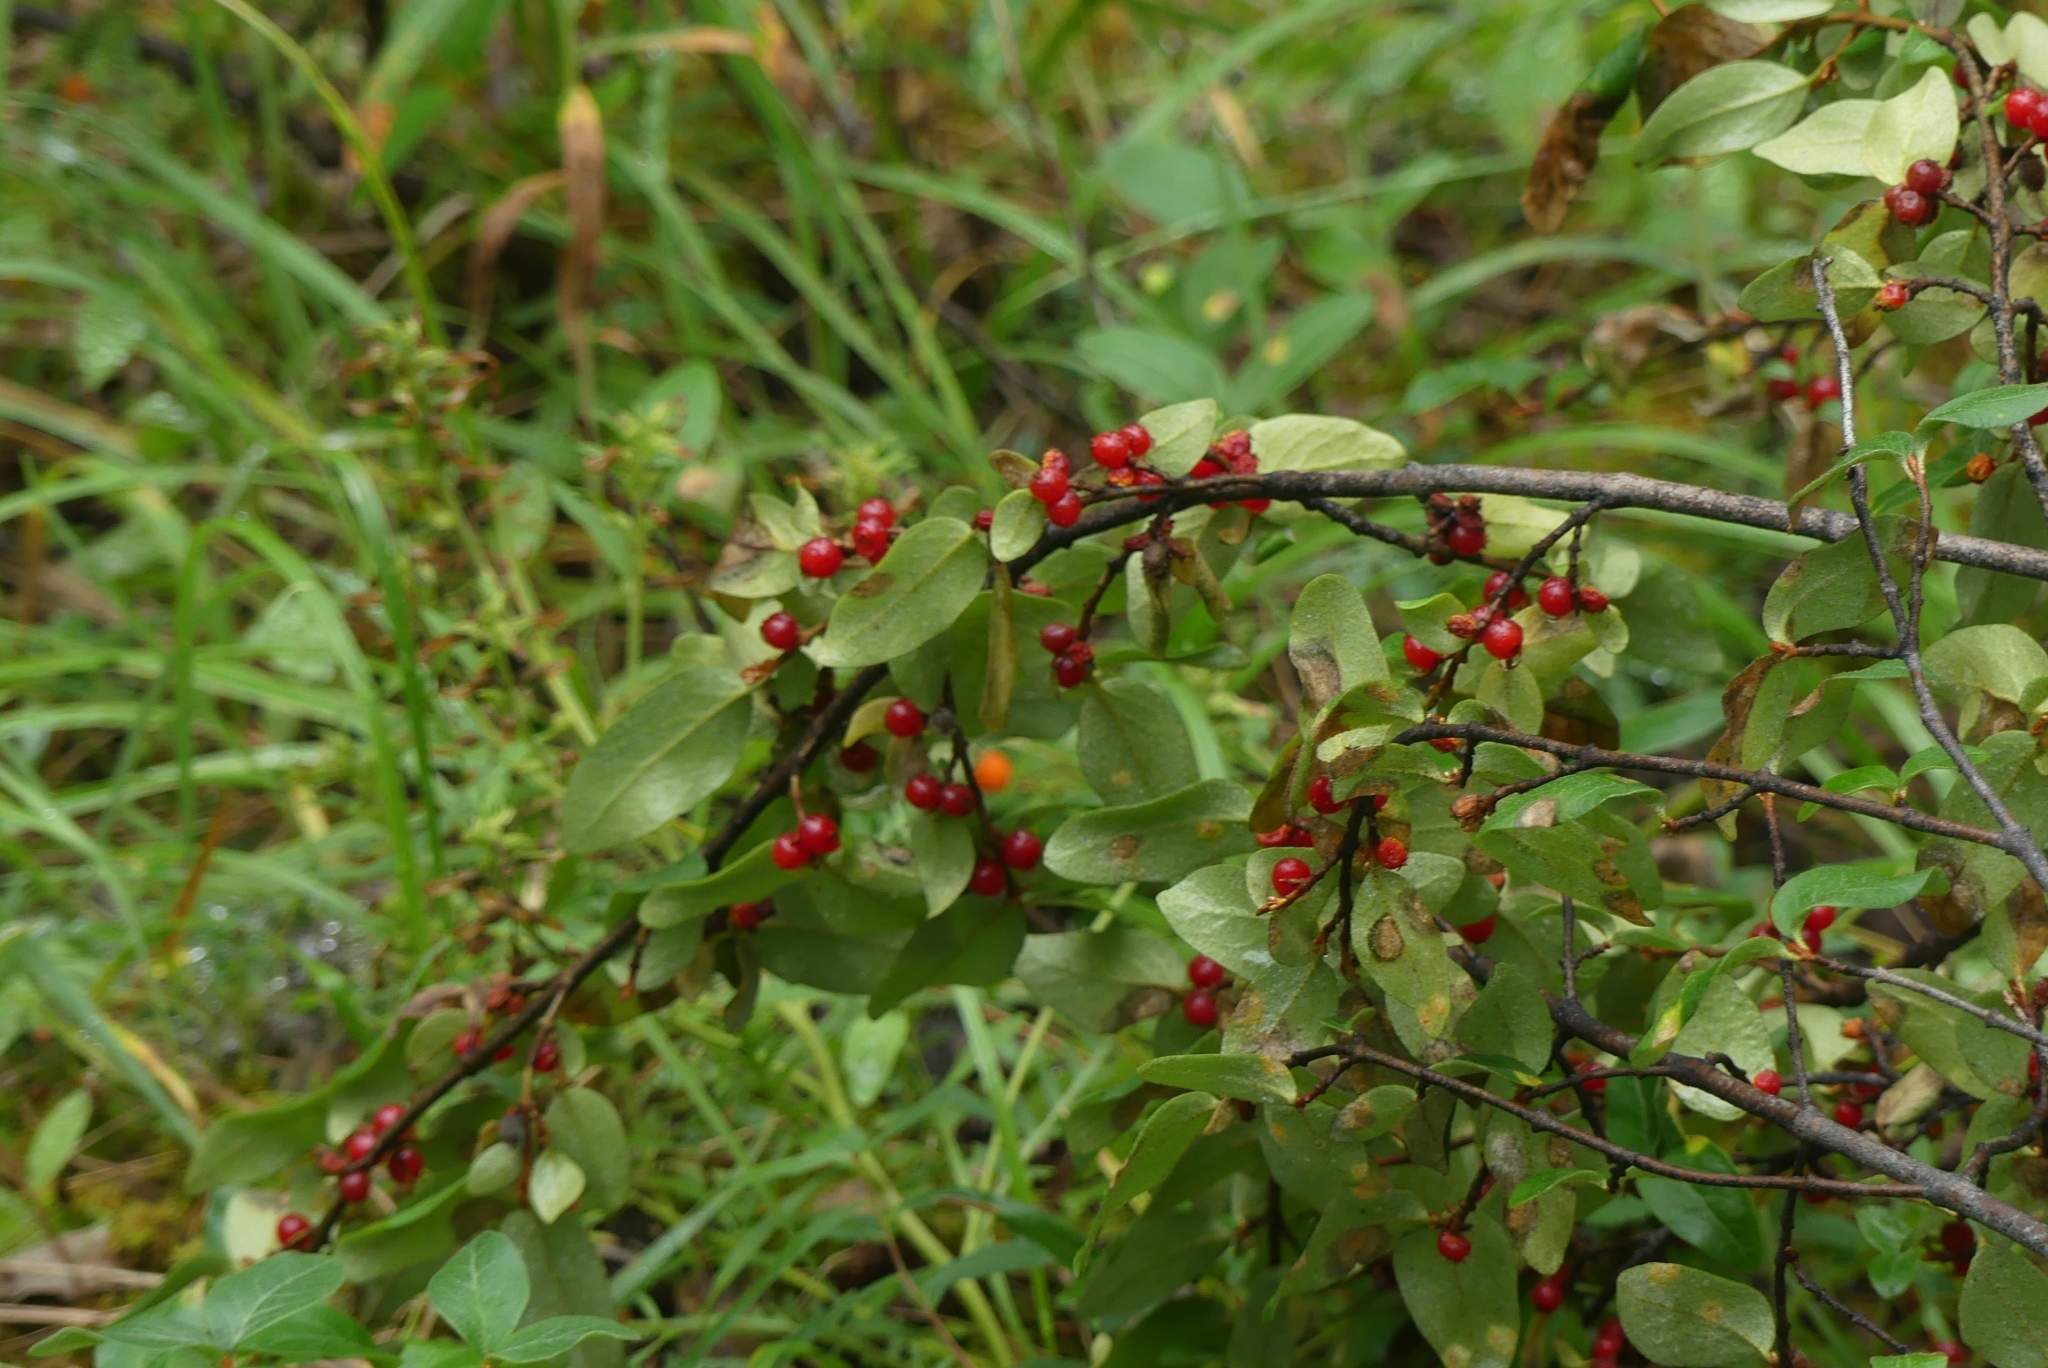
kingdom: Plantae
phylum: Tracheophyta
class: Magnoliopsida
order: Rosales
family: Elaeagnaceae
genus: Shepherdia
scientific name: Shepherdia canadensis
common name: Soapberry
